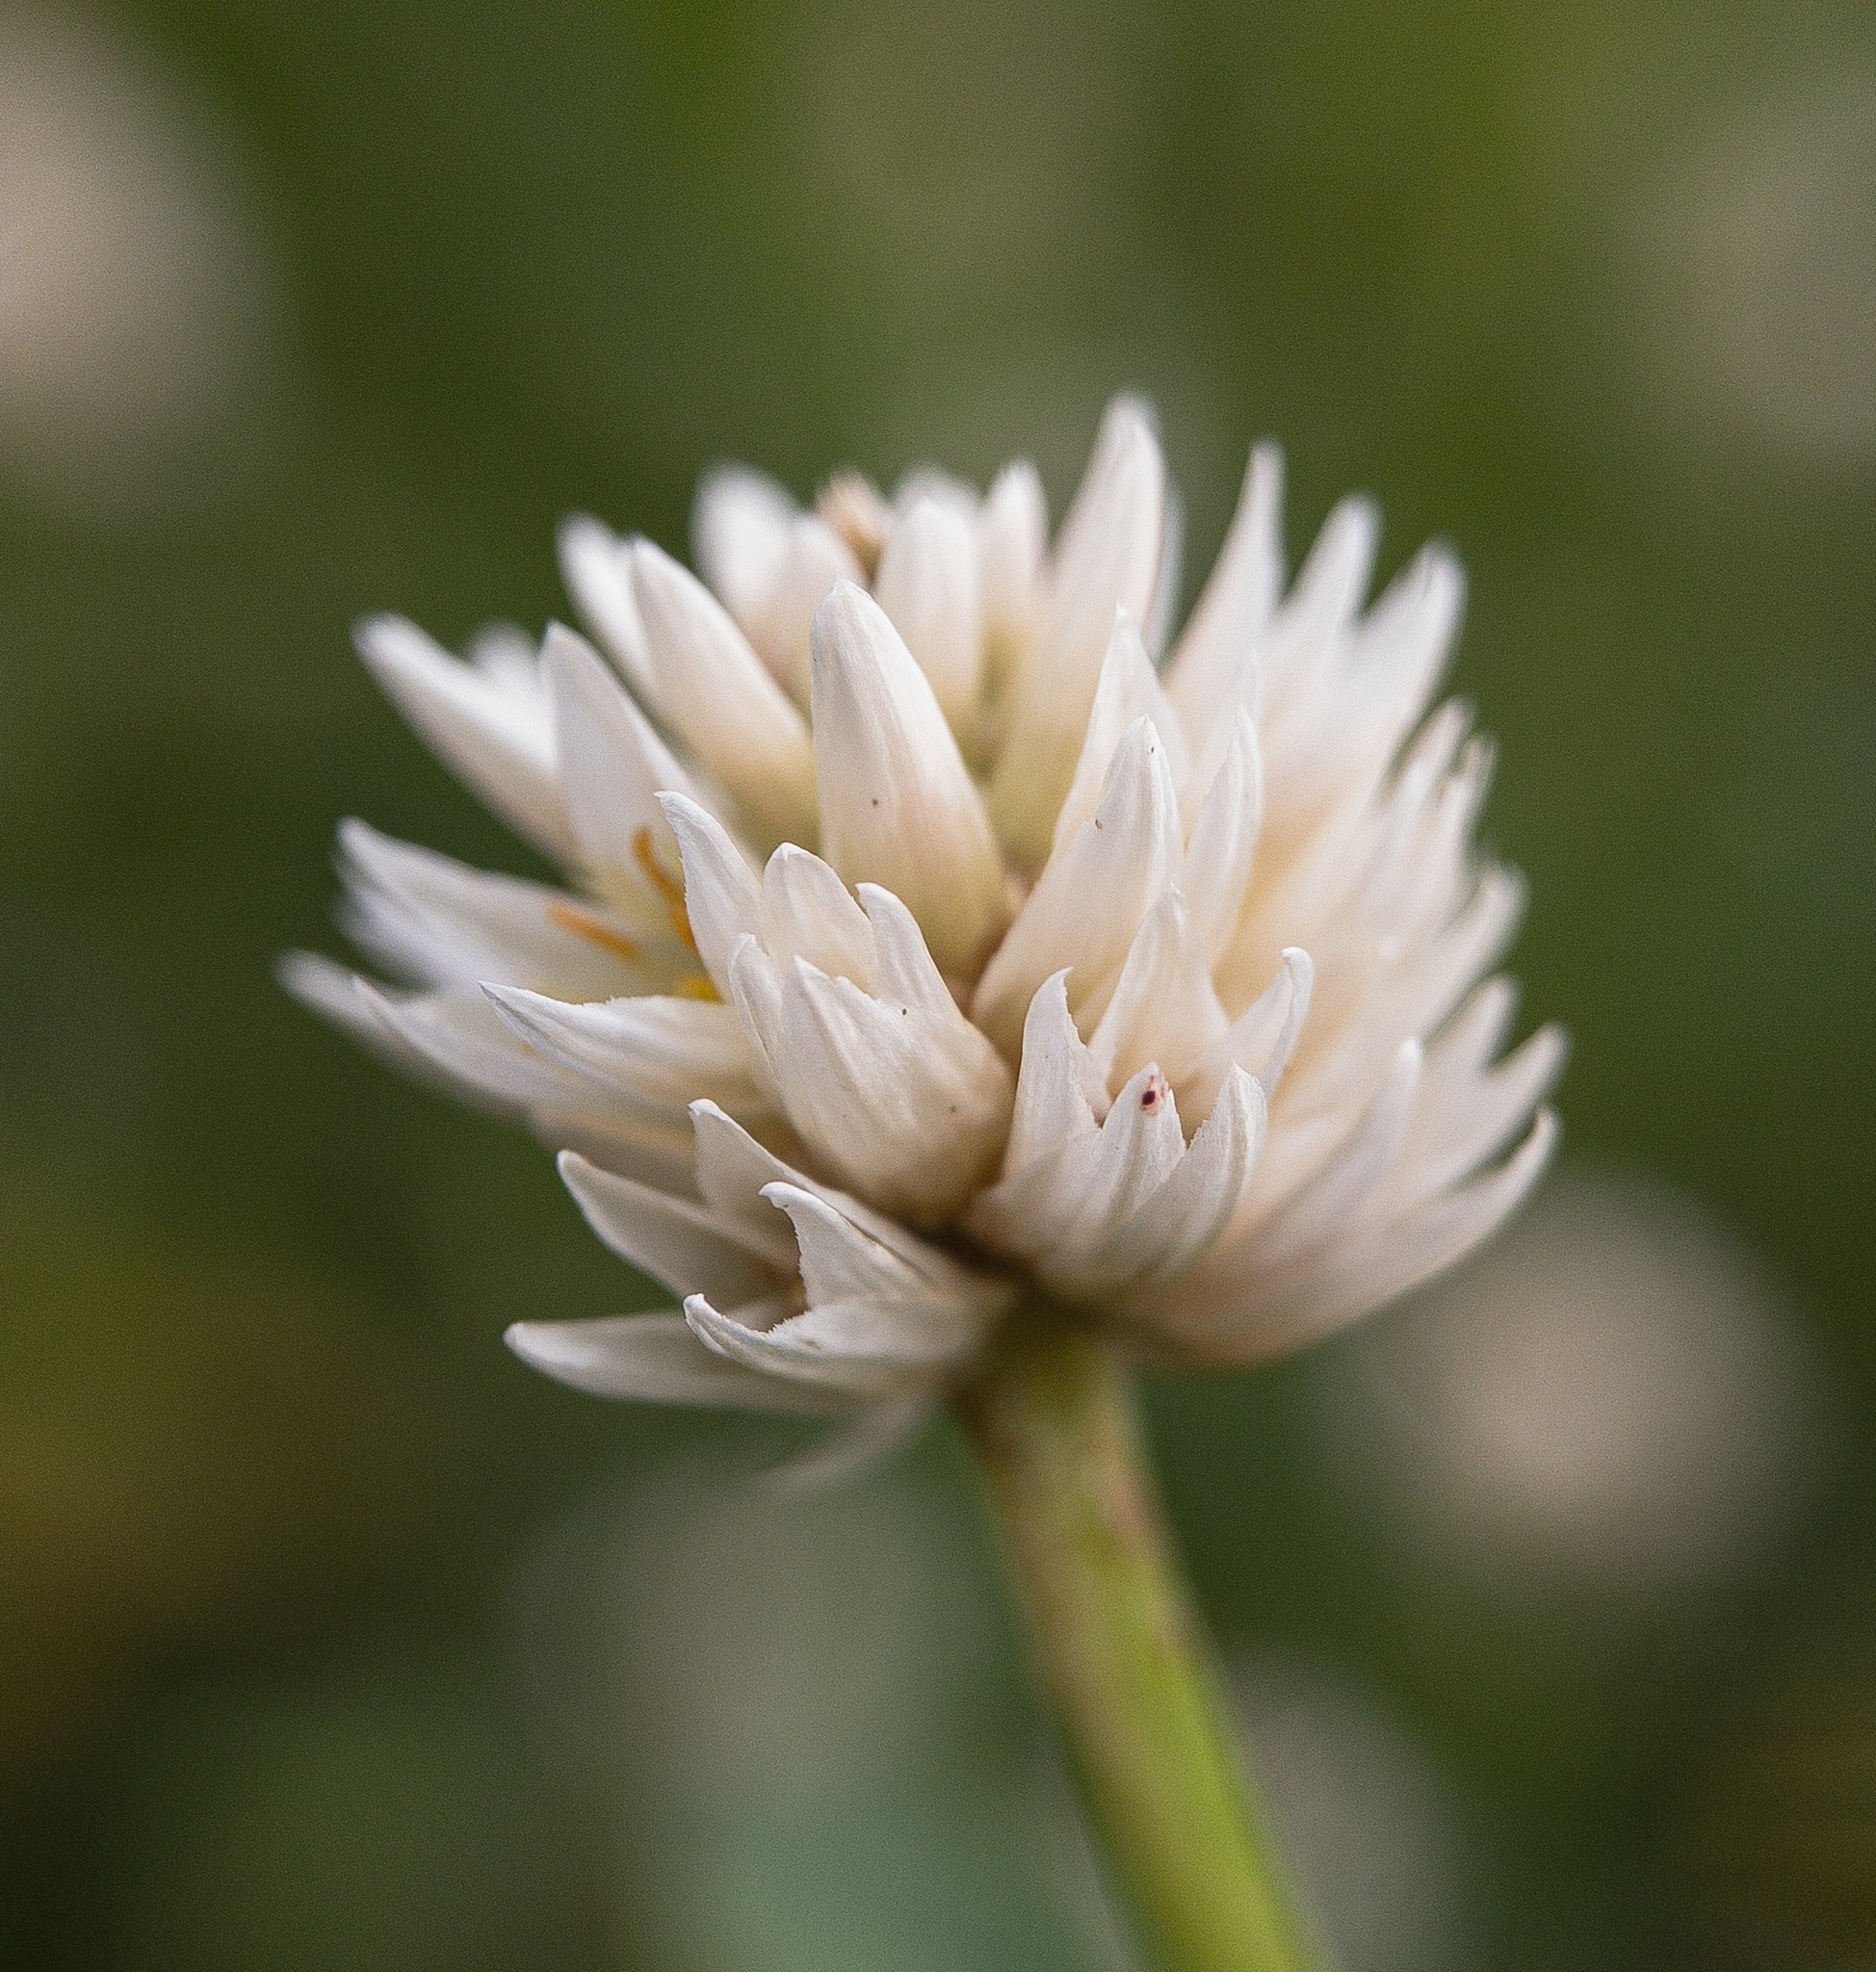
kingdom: Plantae
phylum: Tracheophyta
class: Magnoliopsida
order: Caryophyllales
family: Amaranthaceae
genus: Alternanthera
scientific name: Alternanthera philoxeroides
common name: Alligatorweed
